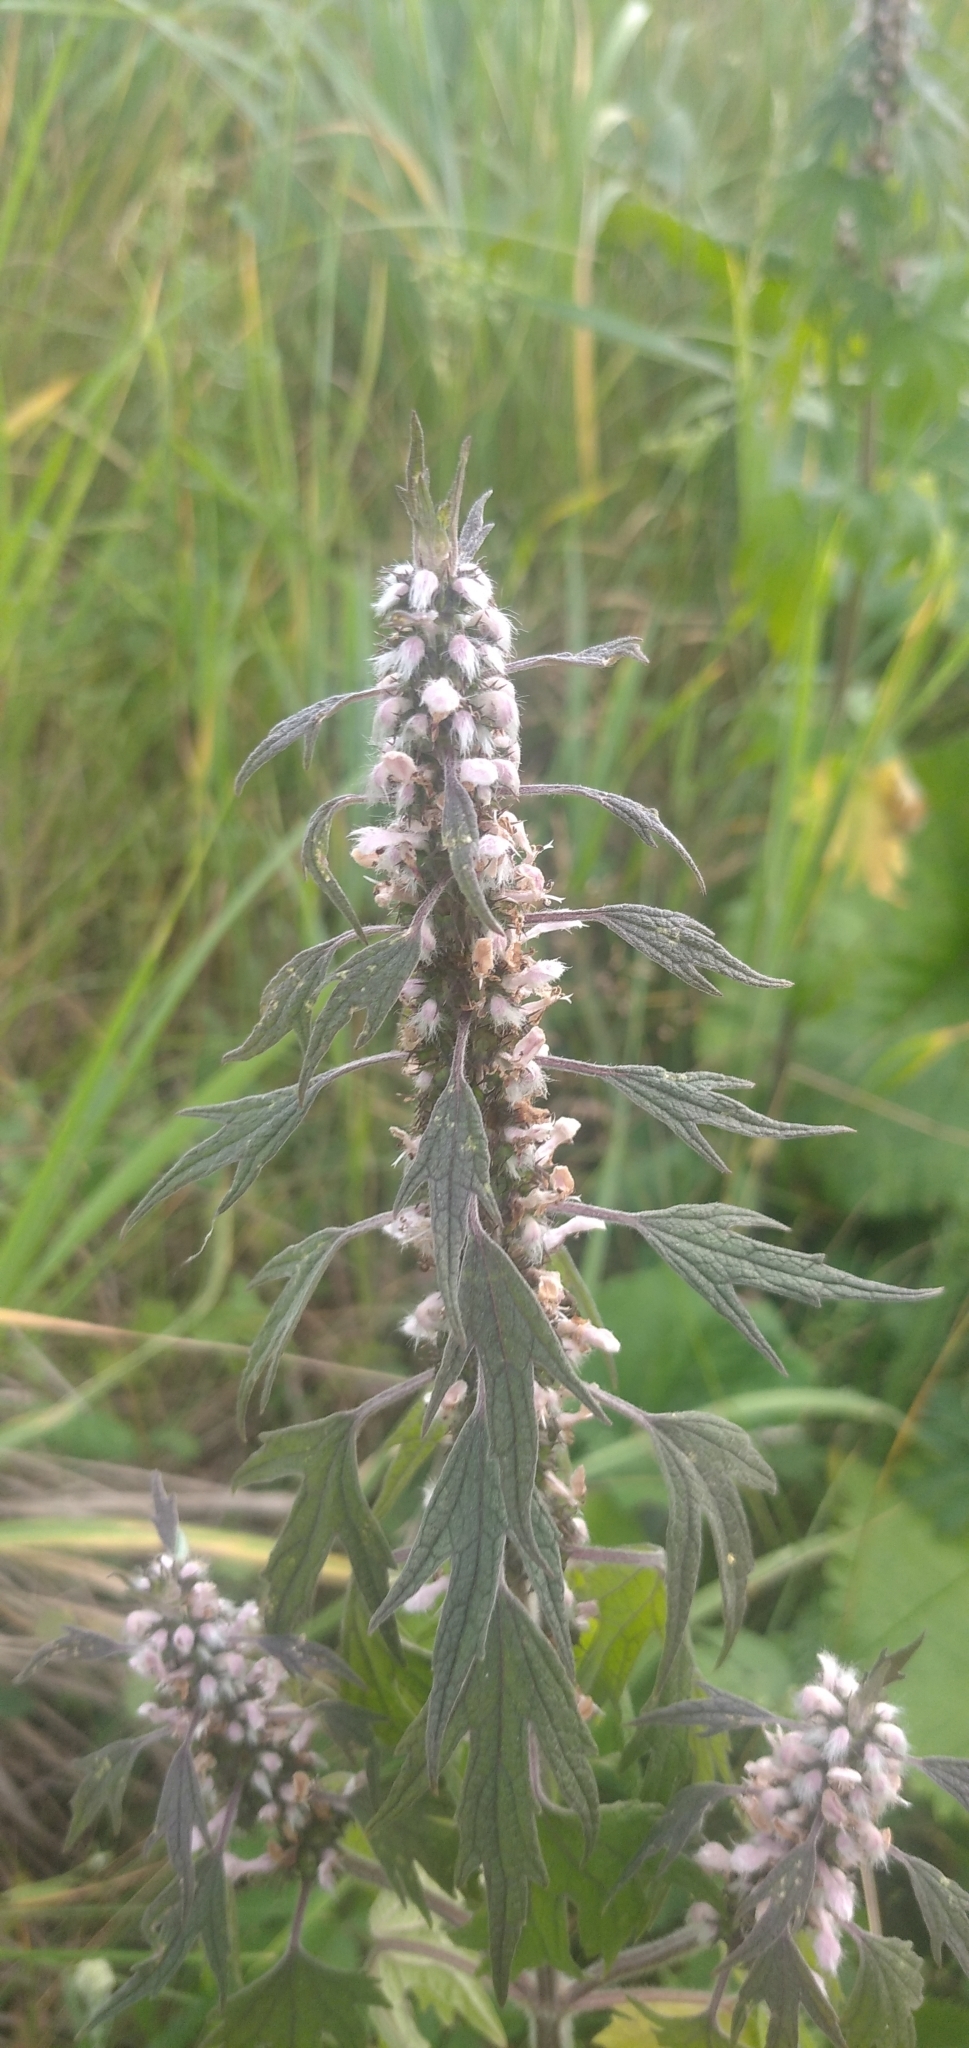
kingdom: Plantae
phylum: Tracheophyta
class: Magnoliopsida
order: Lamiales
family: Lamiaceae
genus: Leonurus
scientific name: Leonurus quinquelobatus
